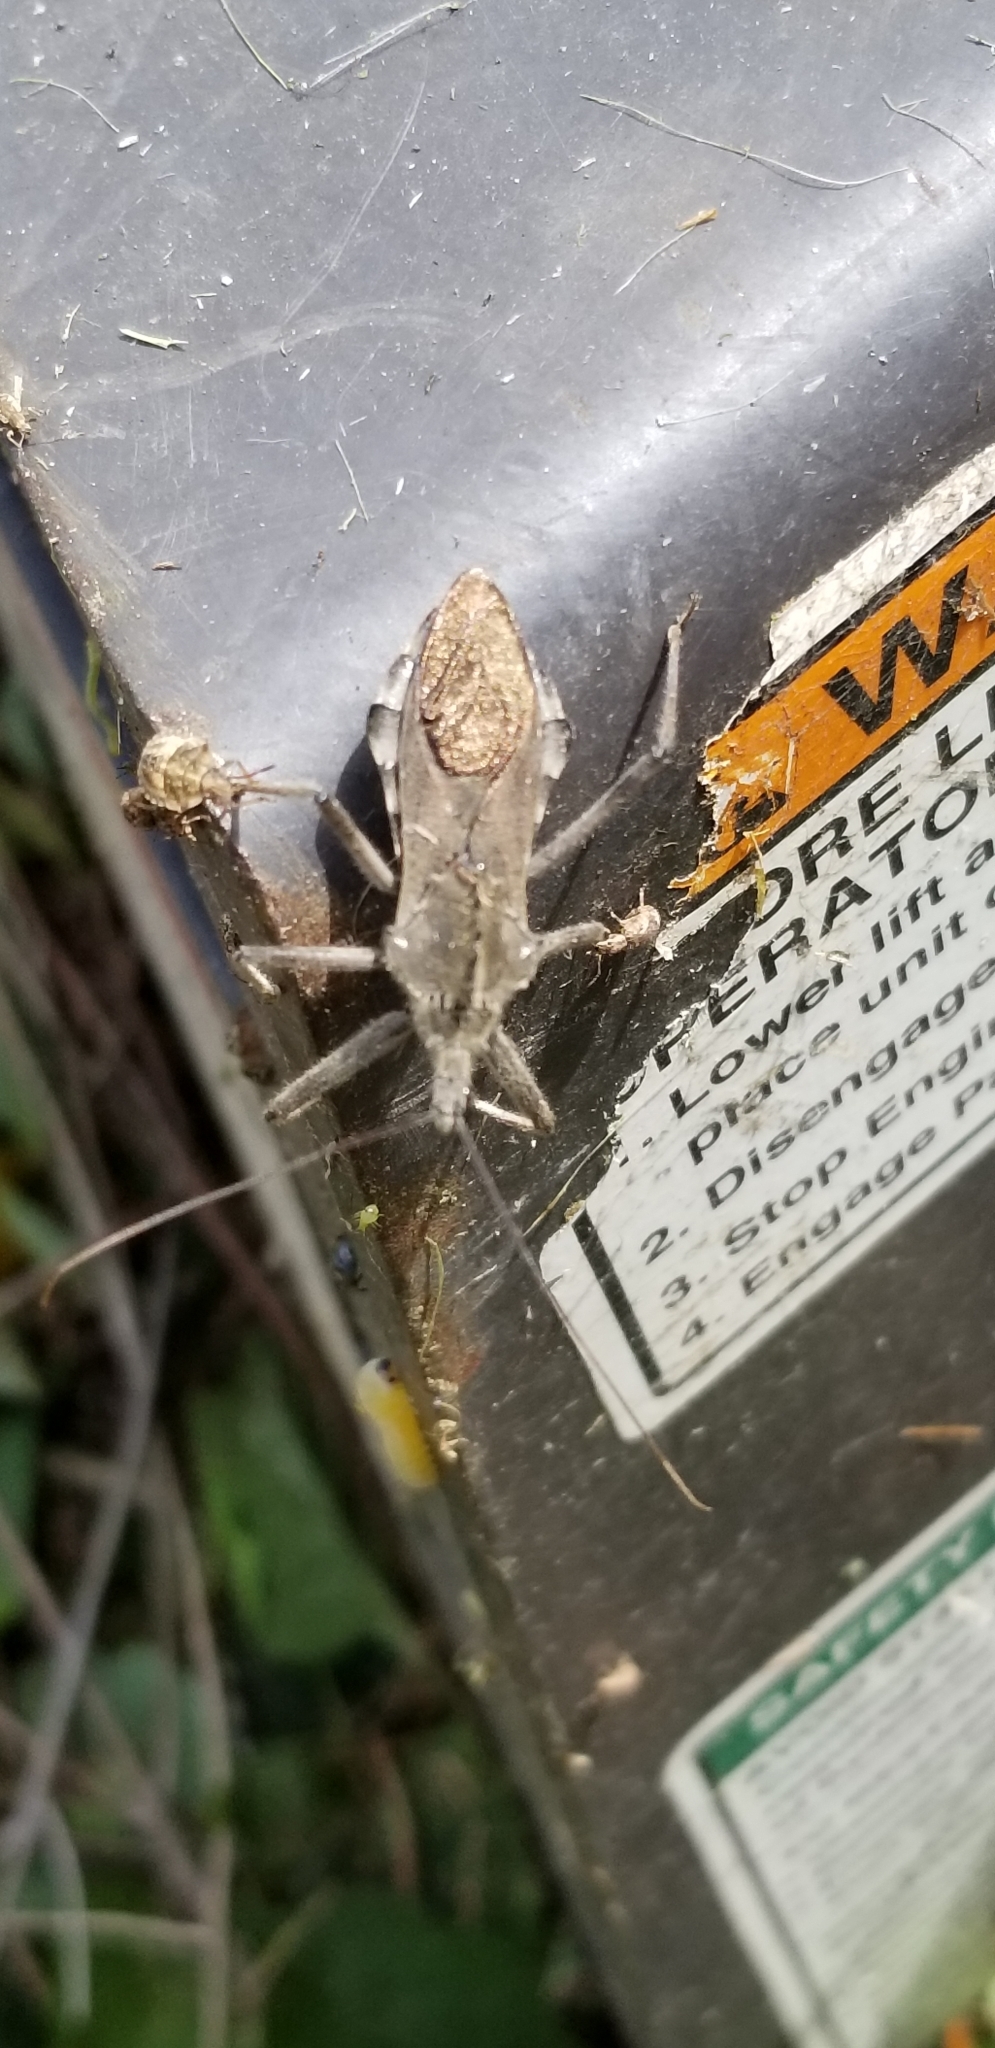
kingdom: Animalia
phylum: Arthropoda
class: Insecta
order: Hemiptera
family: Reduviidae
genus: Arilus
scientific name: Arilus cristatus
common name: North american wheel bug
